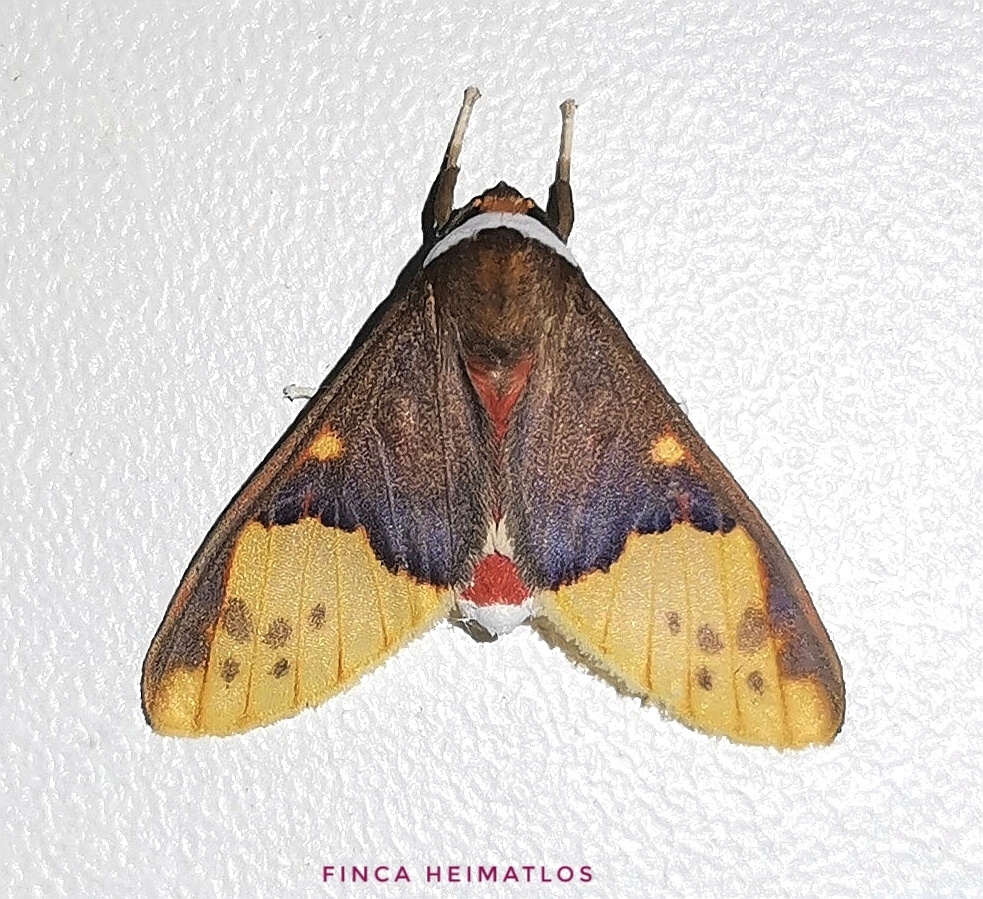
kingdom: Animalia
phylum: Arthropoda
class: Insecta
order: Lepidoptera
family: Erebidae
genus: Evius
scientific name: Evius hippia
